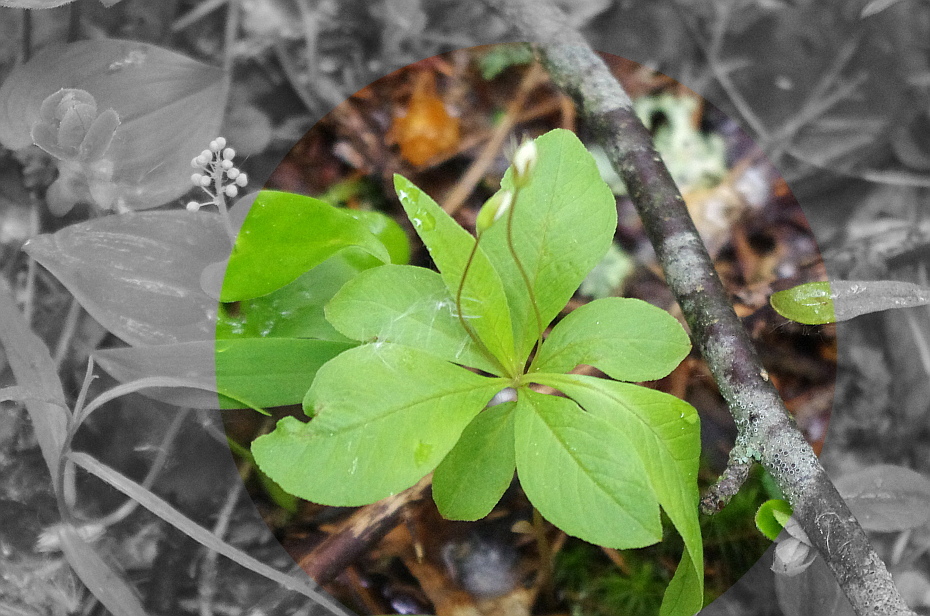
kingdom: Plantae
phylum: Tracheophyta
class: Magnoliopsida
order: Ericales
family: Primulaceae
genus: Lysimachia
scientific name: Lysimachia europaea
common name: Arctic starflower
